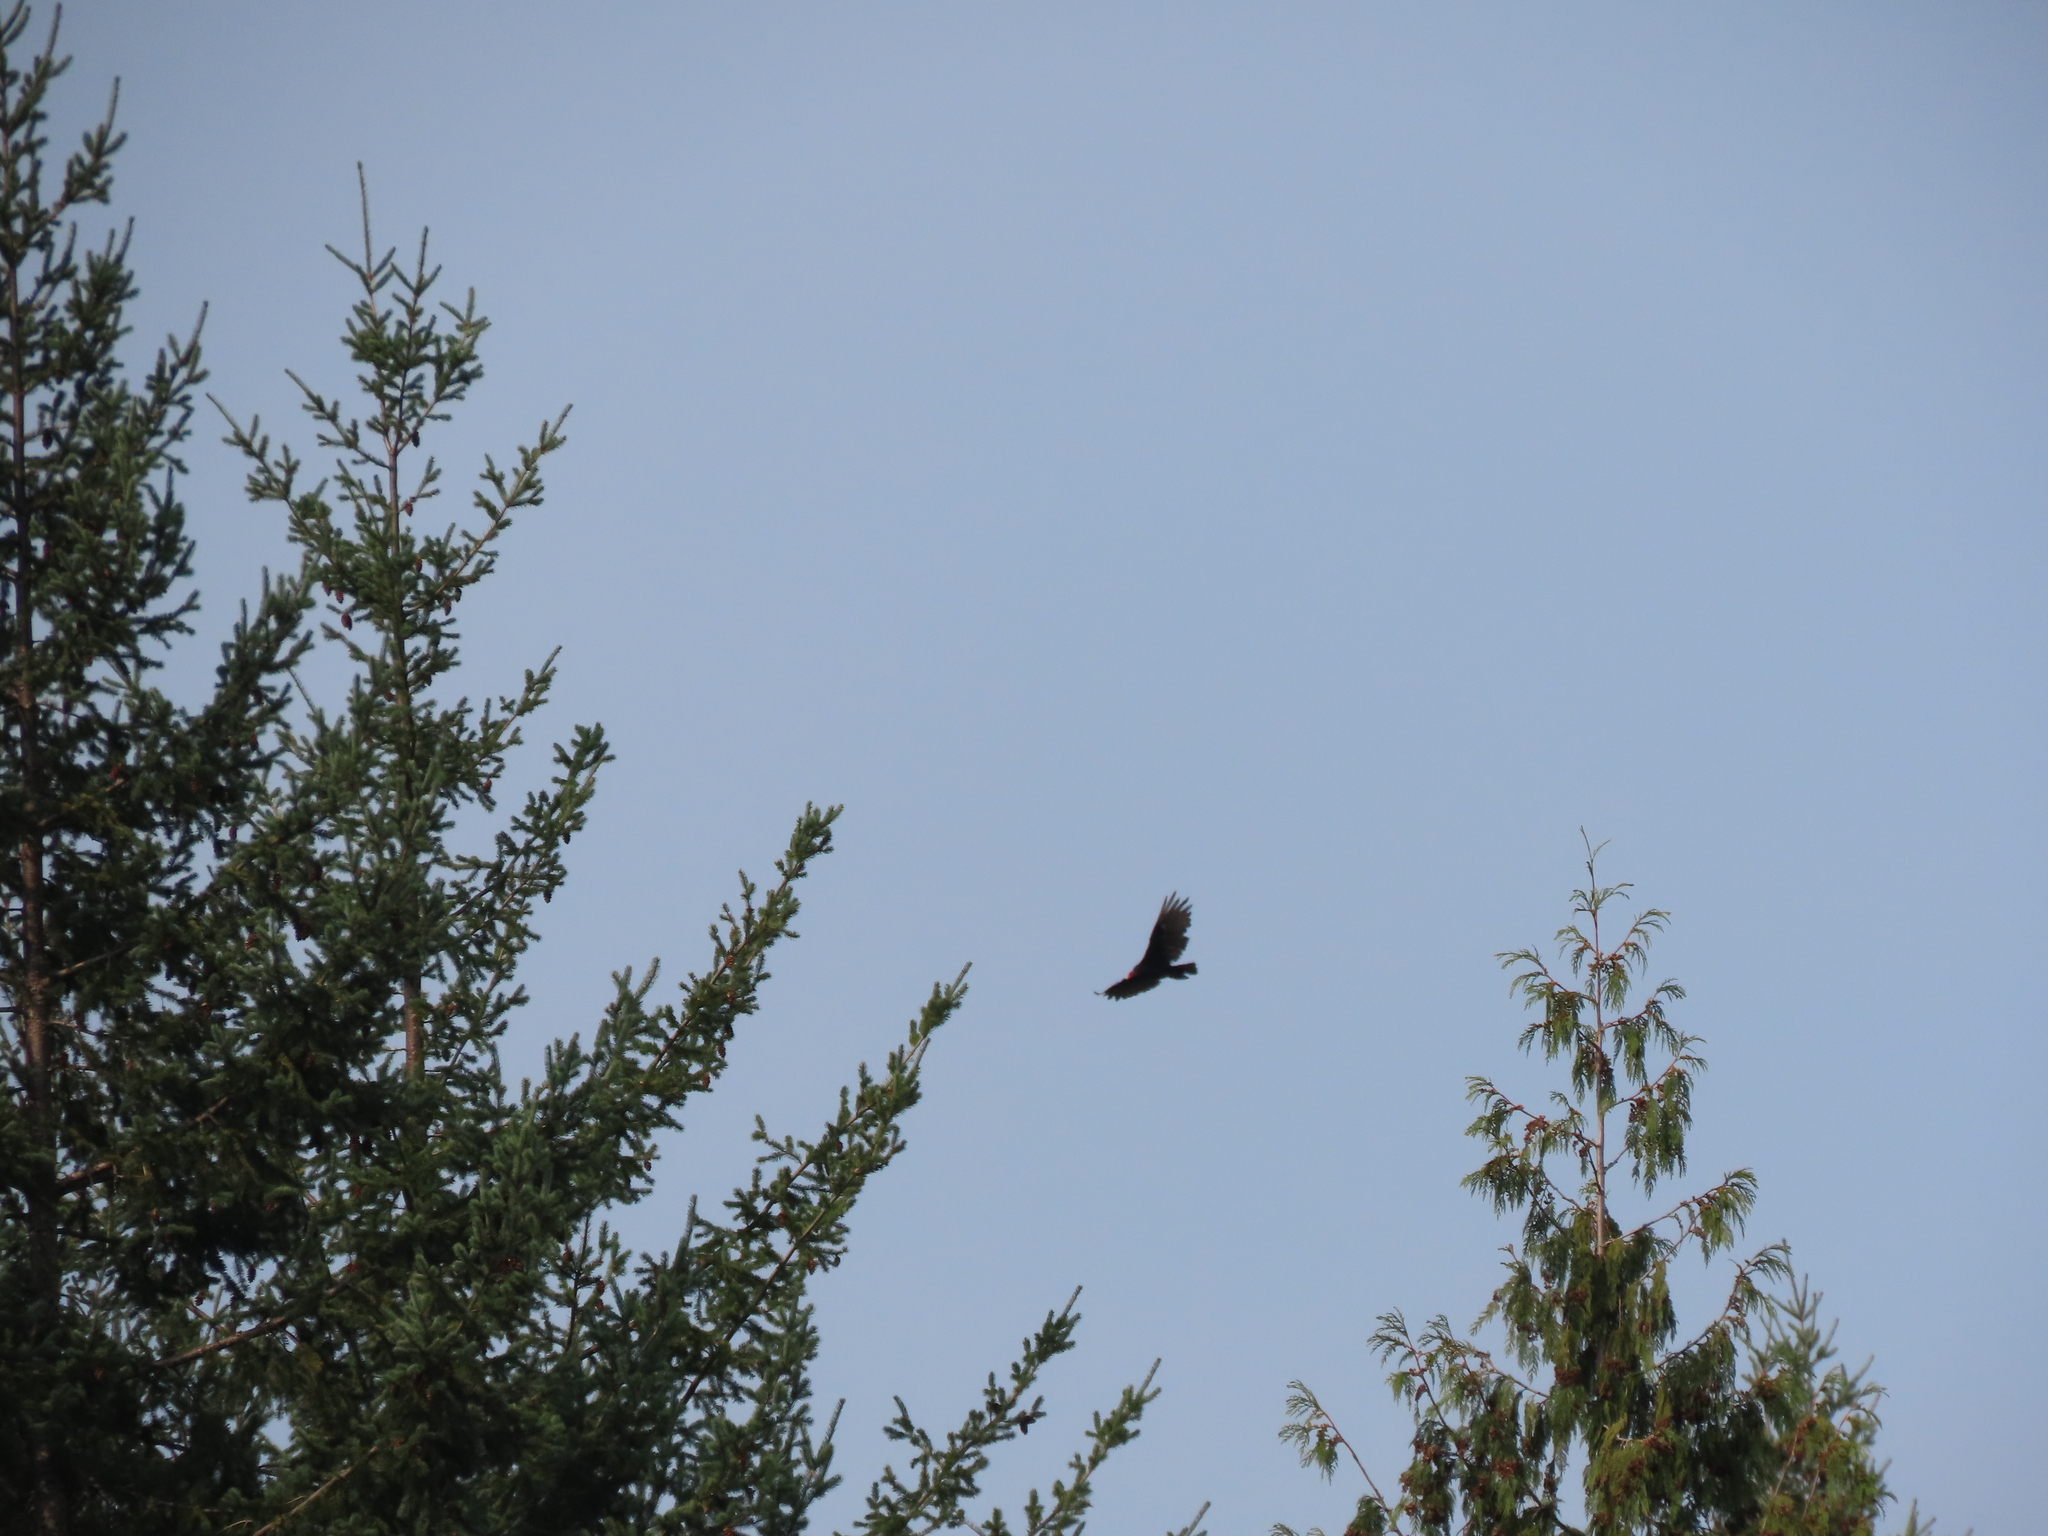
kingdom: Animalia
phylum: Chordata
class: Aves
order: Accipitriformes
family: Cathartidae
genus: Cathartes
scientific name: Cathartes aura
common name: Turkey vulture
